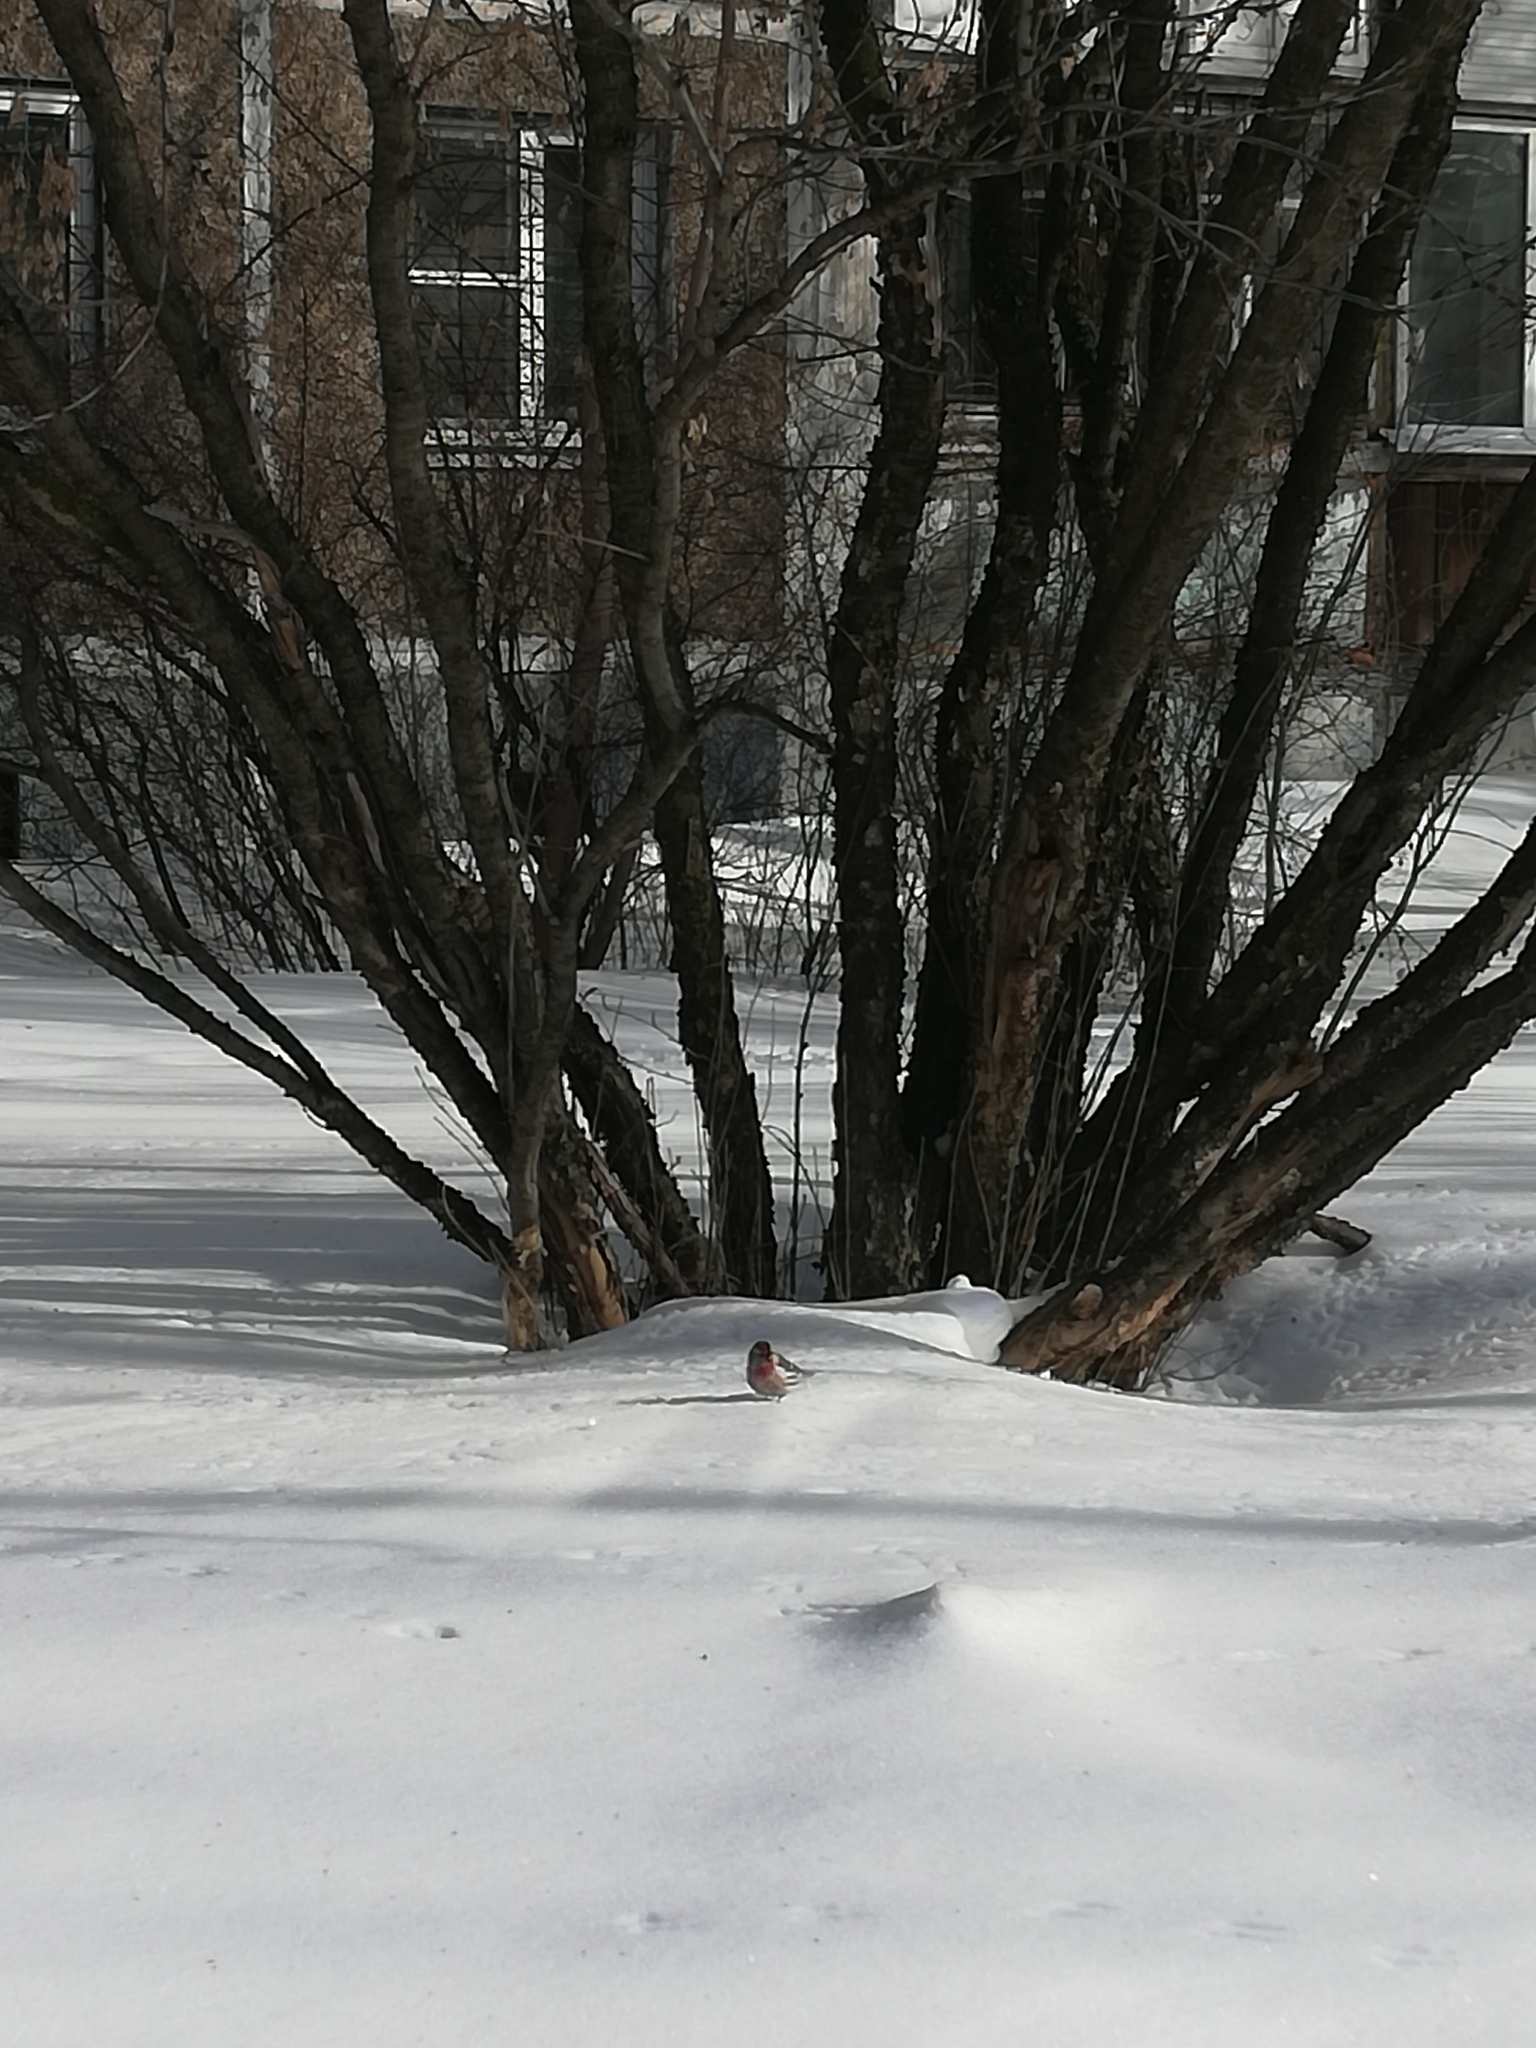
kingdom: Animalia
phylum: Chordata
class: Aves
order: Passeriformes
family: Fringillidae
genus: Acanthis
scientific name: Acanthis flammea
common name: Common redpoll
